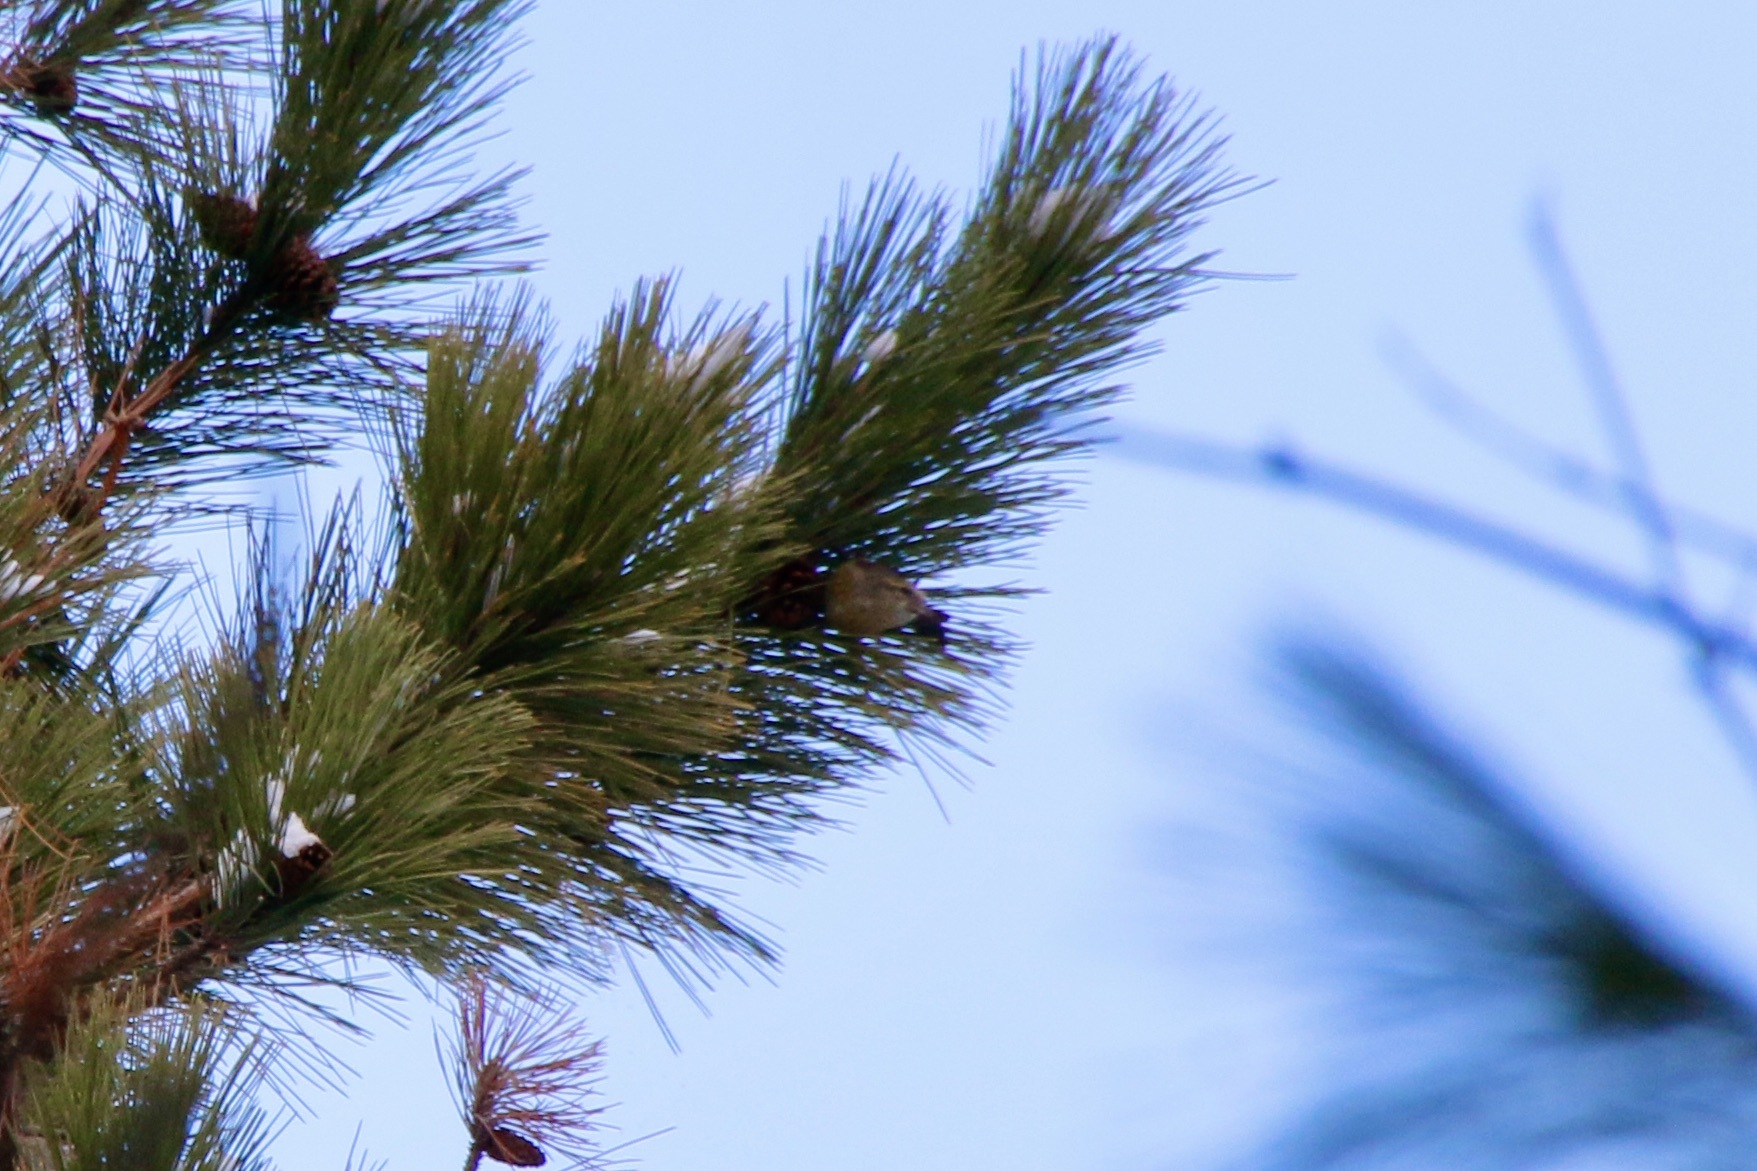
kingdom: Animalia
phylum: Chordata
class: Aves
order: Passeriformes
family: Fringillidae
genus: Loxia
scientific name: Loxia curvirostra
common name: Red crossbill
